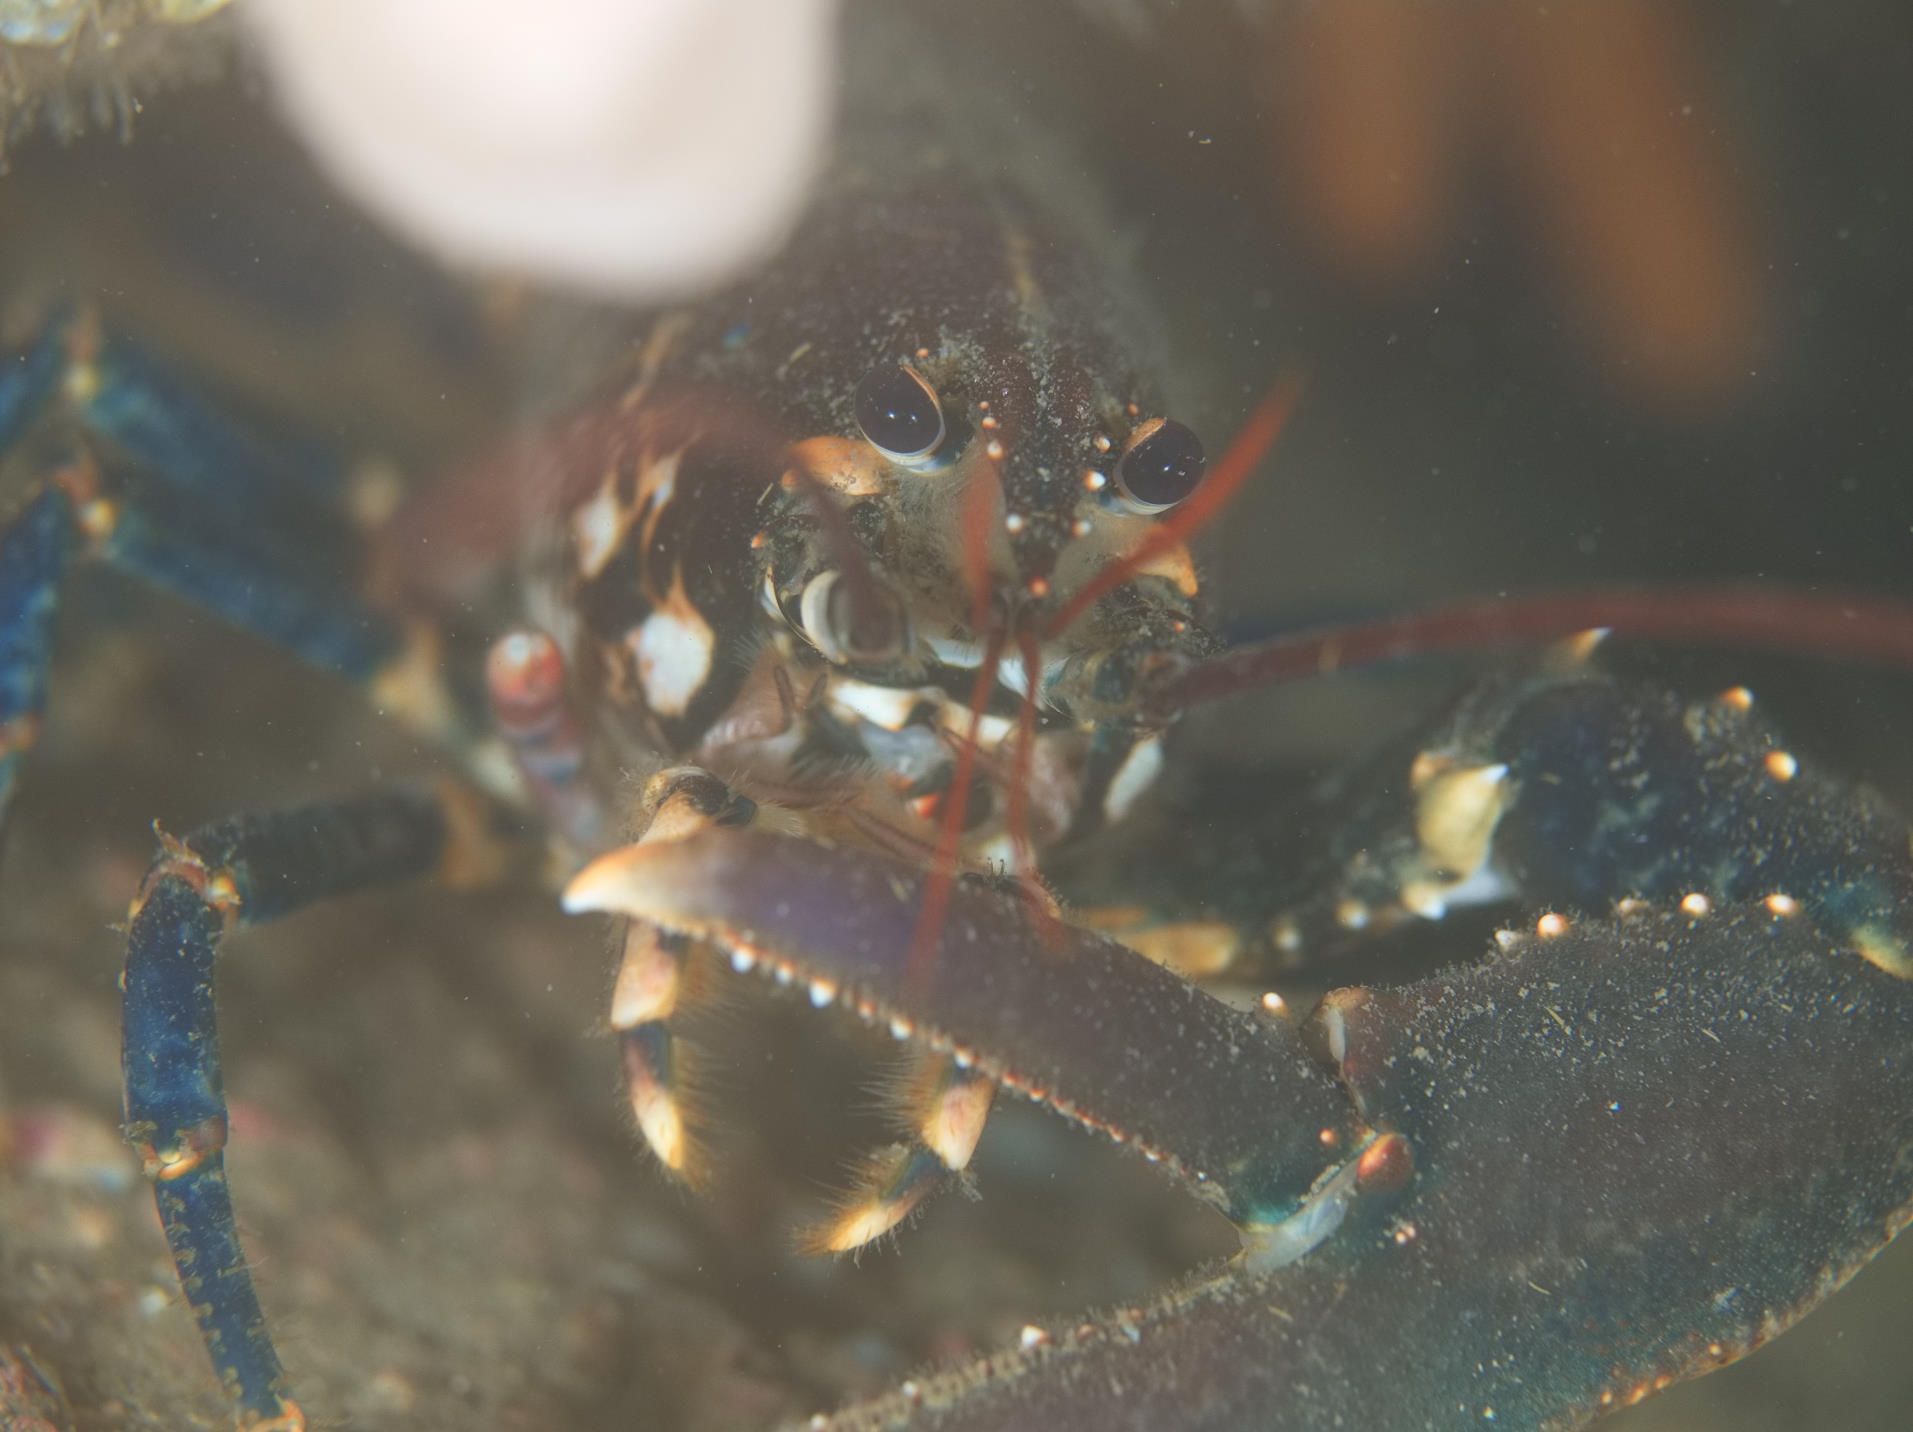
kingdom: Animalia
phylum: Arthropoda
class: Malacostraca
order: Decapoda
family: Nephropidae
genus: Homarus
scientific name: Homarus gammarus
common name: European lobster
